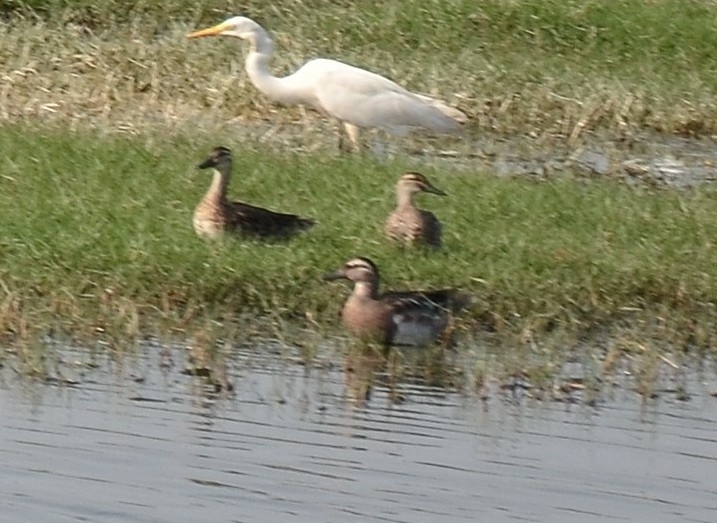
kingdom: Animalia
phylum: Chordata
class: Aves
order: Anseriformes
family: Anatidae
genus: Spatula
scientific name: Spatula querquedula
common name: Garganey
